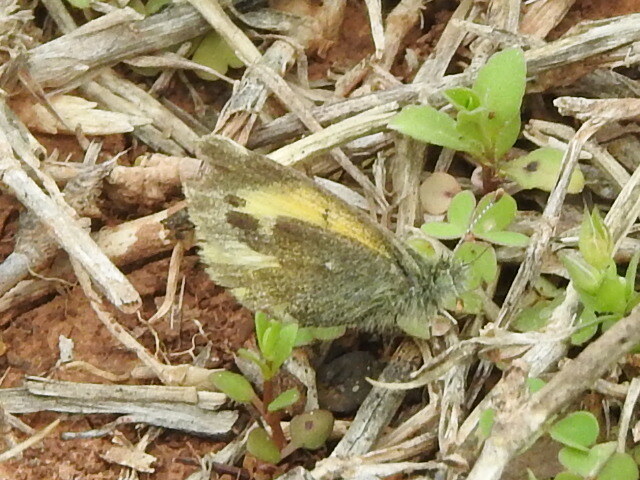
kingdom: Animalia
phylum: Arthropoda
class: Insecta
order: Lepidoptera
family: Pieridae
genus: Nathalis
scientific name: Nathalis iole
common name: Dainty sulphur
